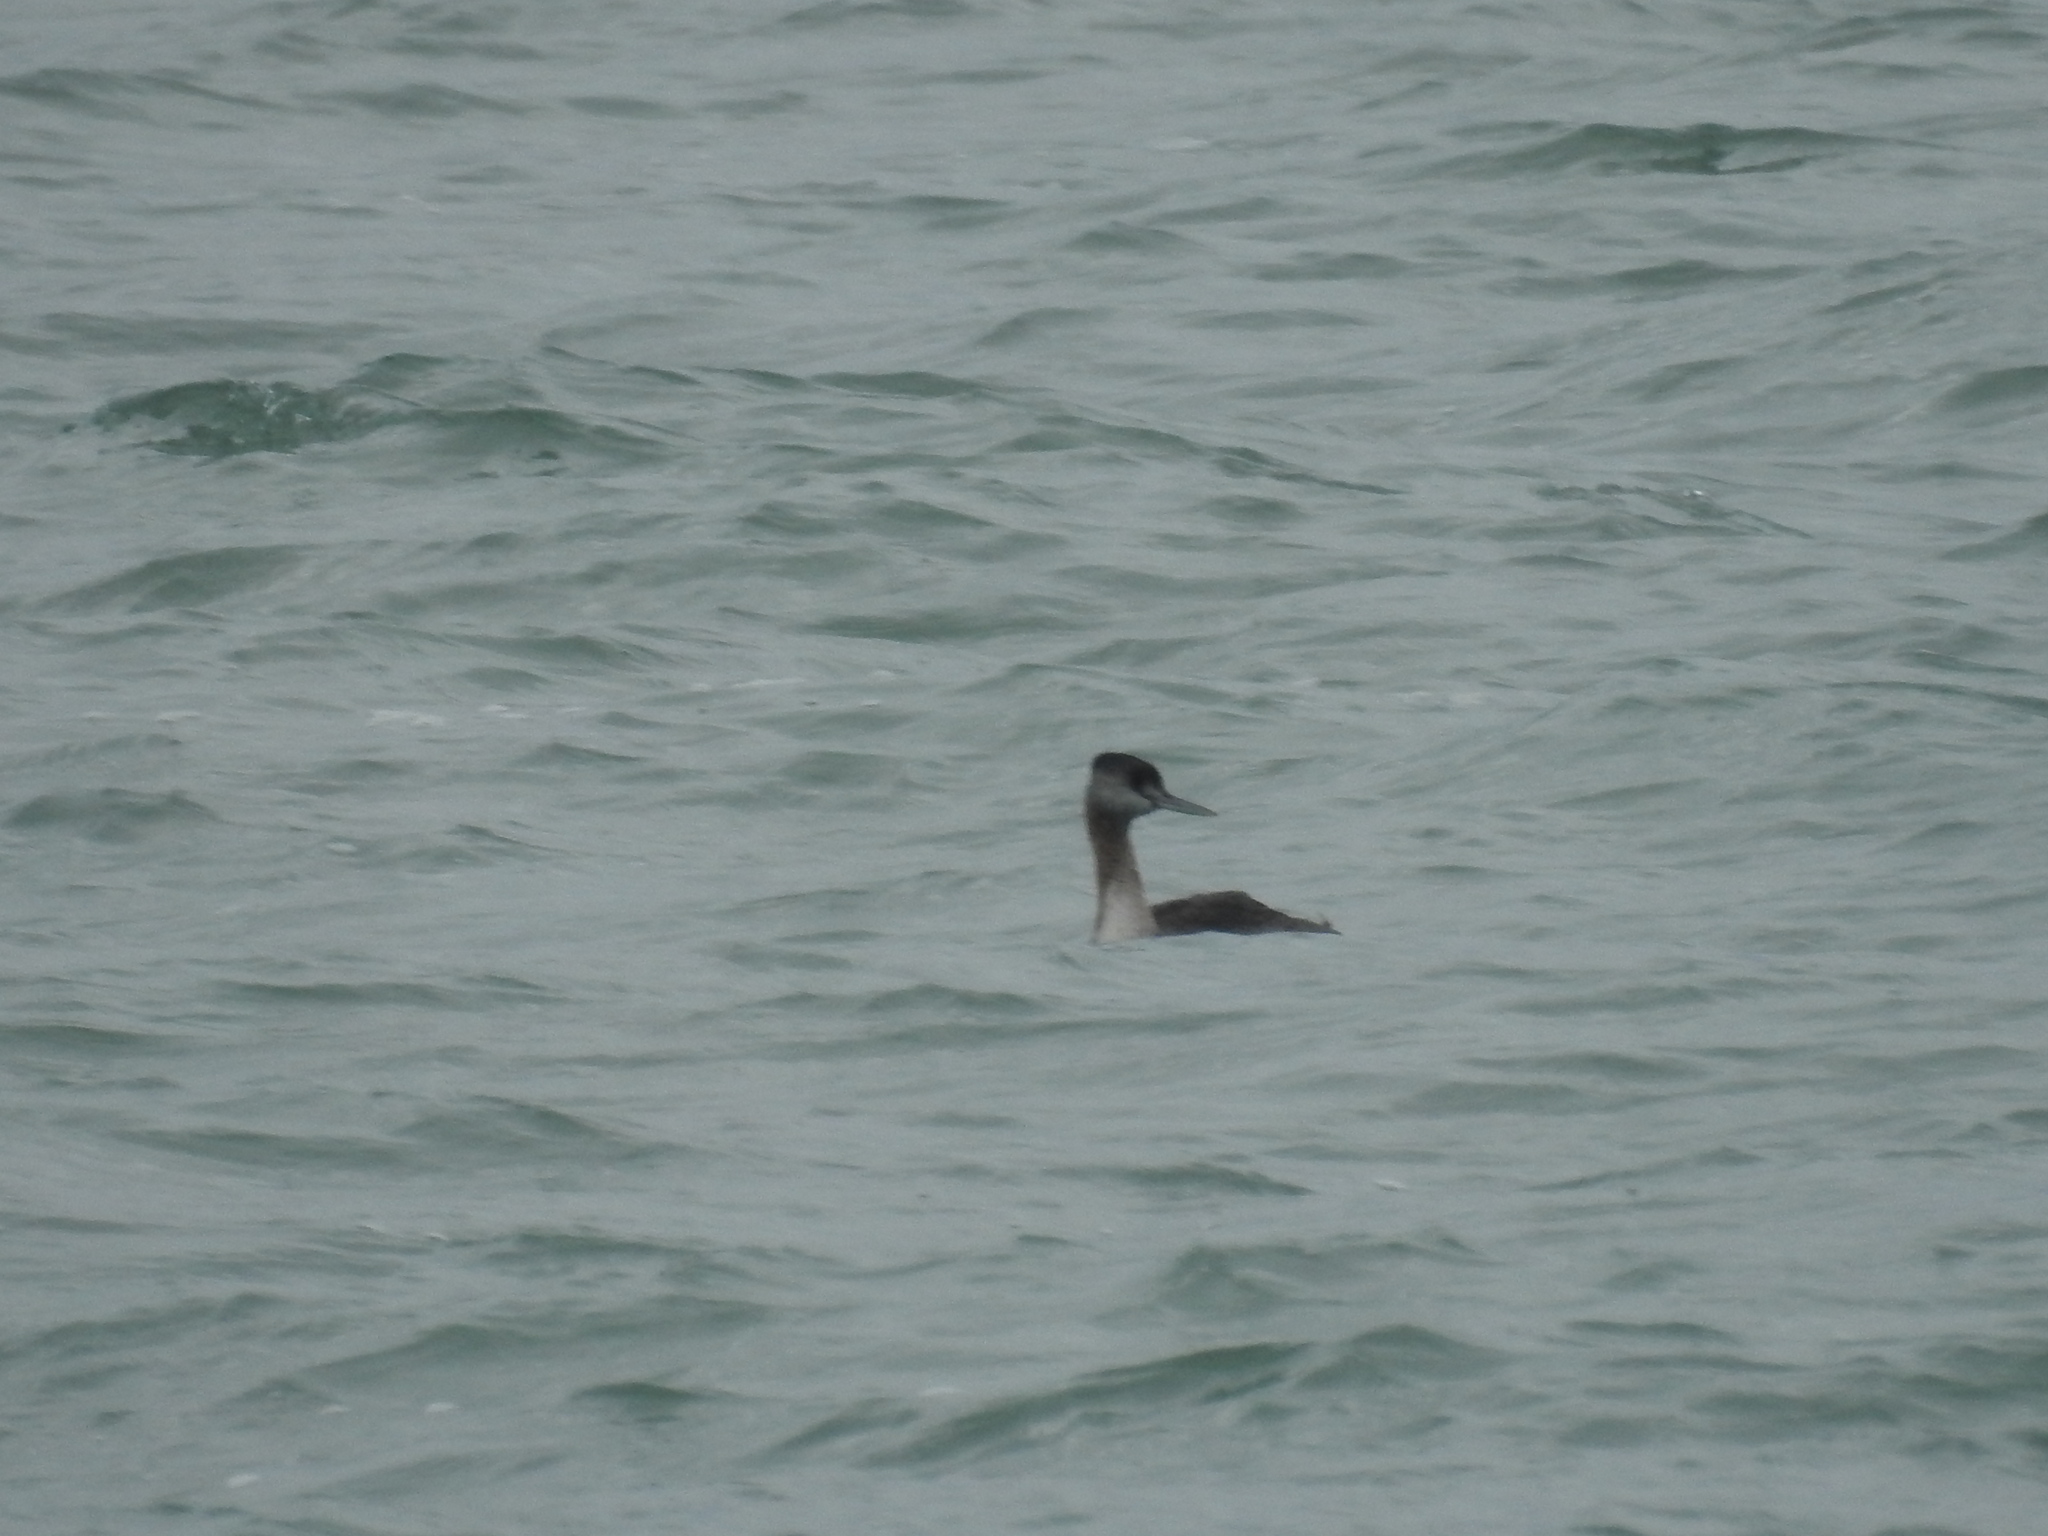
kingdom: Animalia
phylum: Chordata
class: Aves
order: Podicipediformes
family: Podicipedidae
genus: Podiceps
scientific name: Podiceps major
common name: Great grebe
